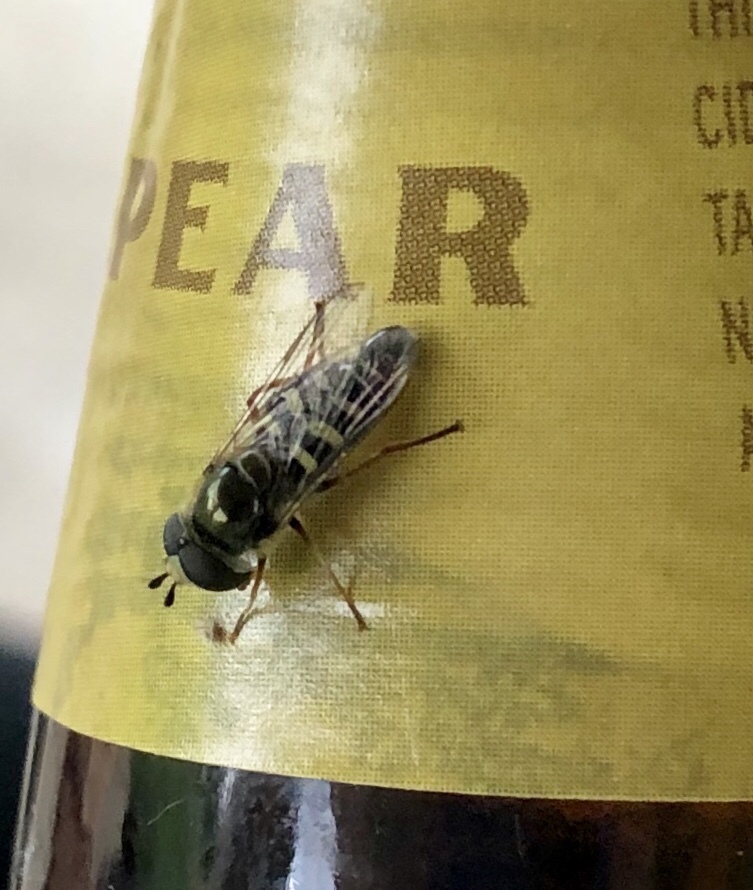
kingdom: Animalia
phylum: Arthropoda
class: Insecta
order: Diptera
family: Syrphidae
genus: Eupeodes
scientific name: Eupeodes volucris
